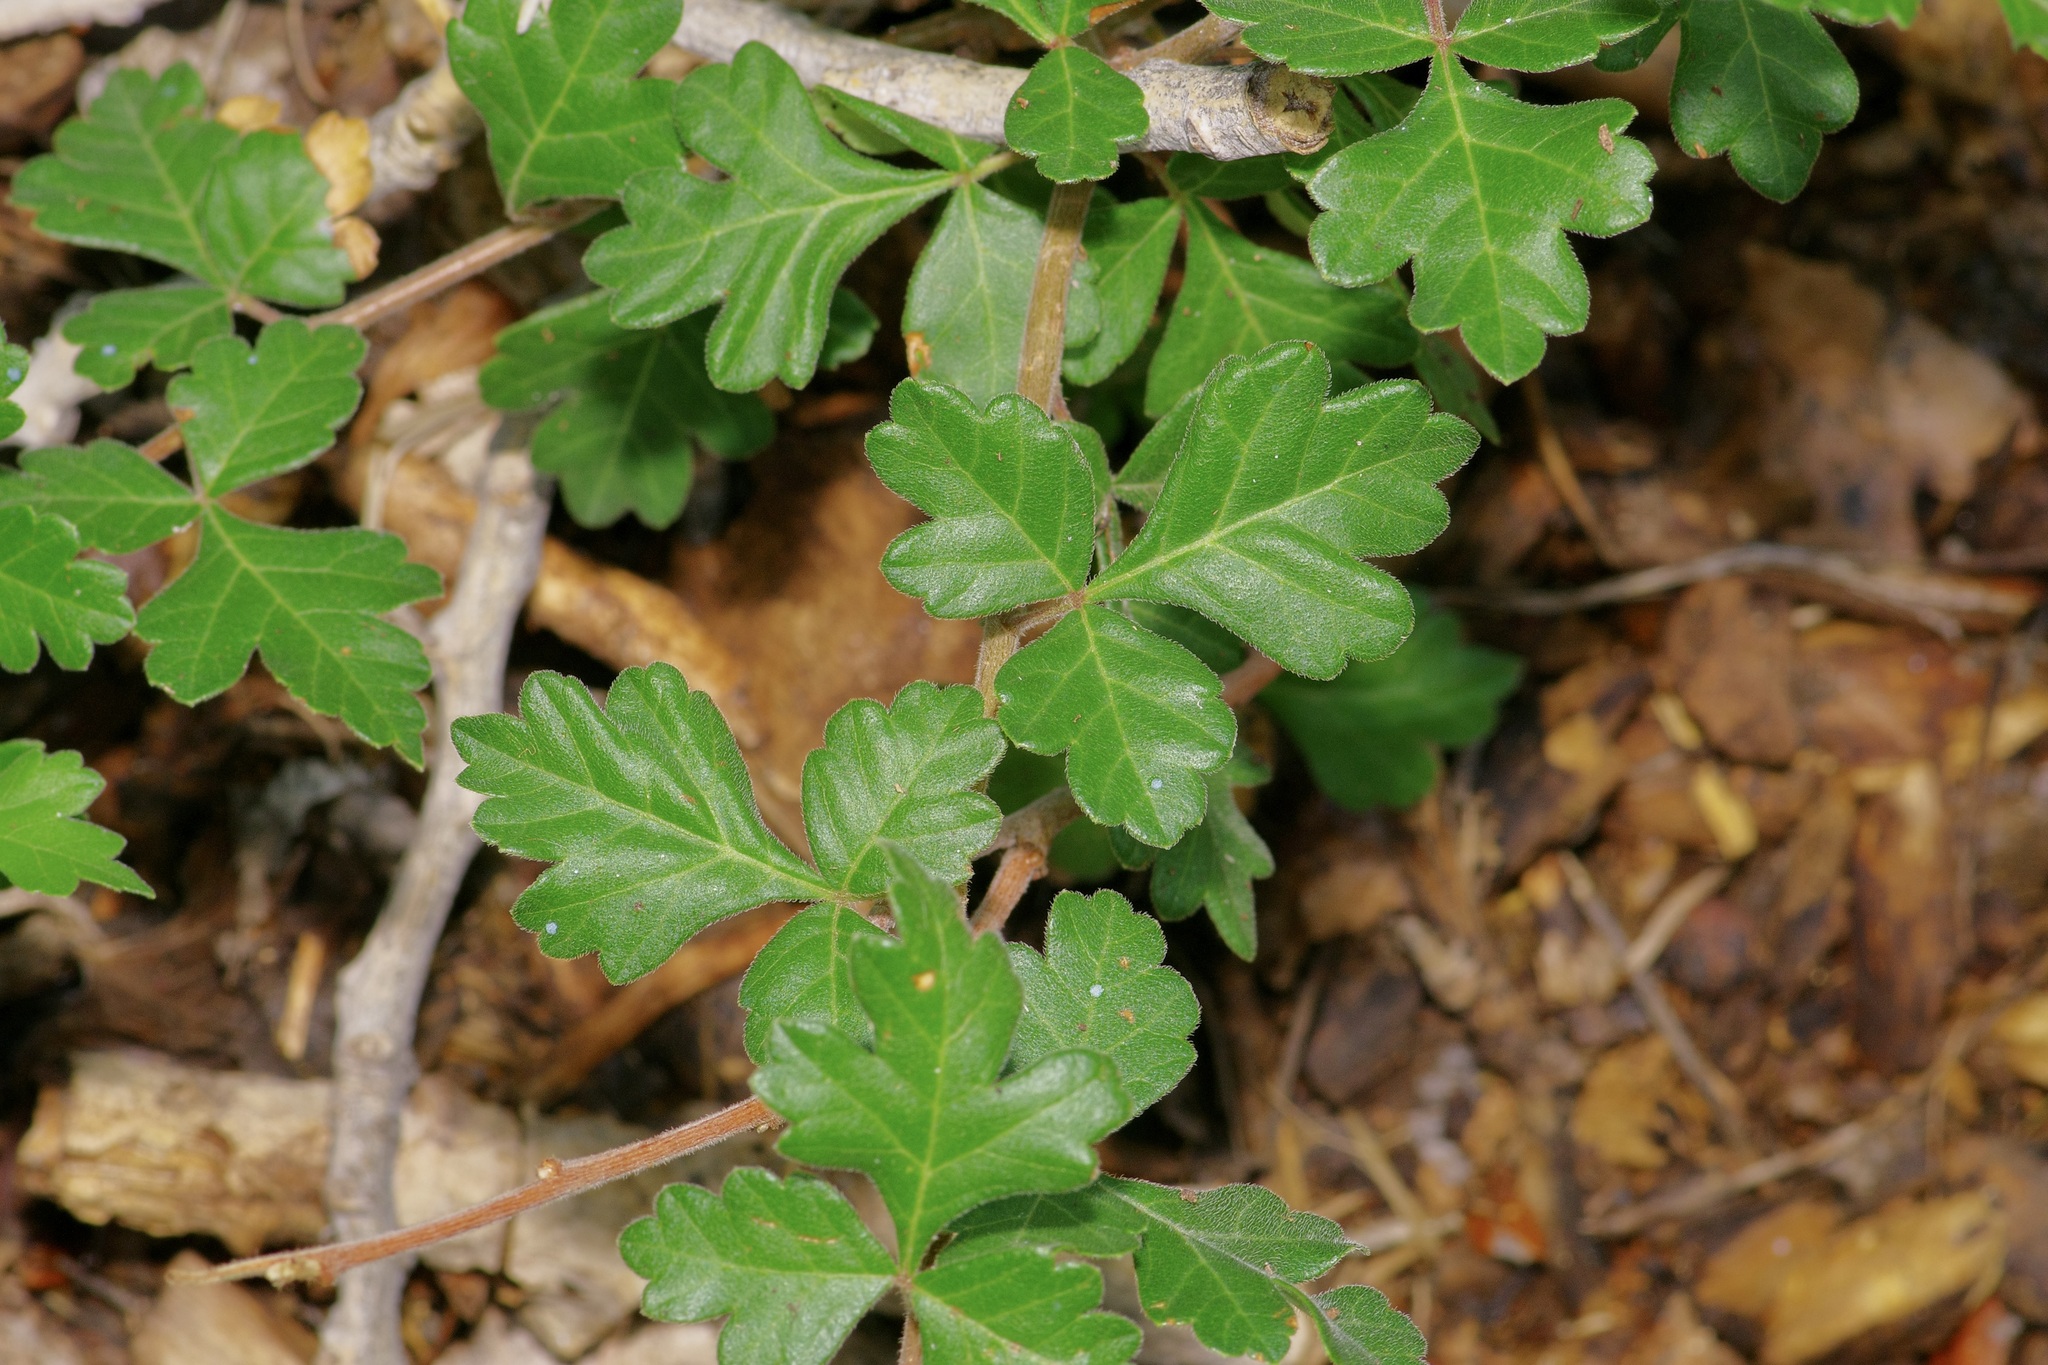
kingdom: Plantae
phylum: Tracheophyta
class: Magnoliopsida
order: Sapindales
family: Anacardiaceae
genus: Rhus
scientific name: Rhus aromatica
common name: Aromatic sumac
